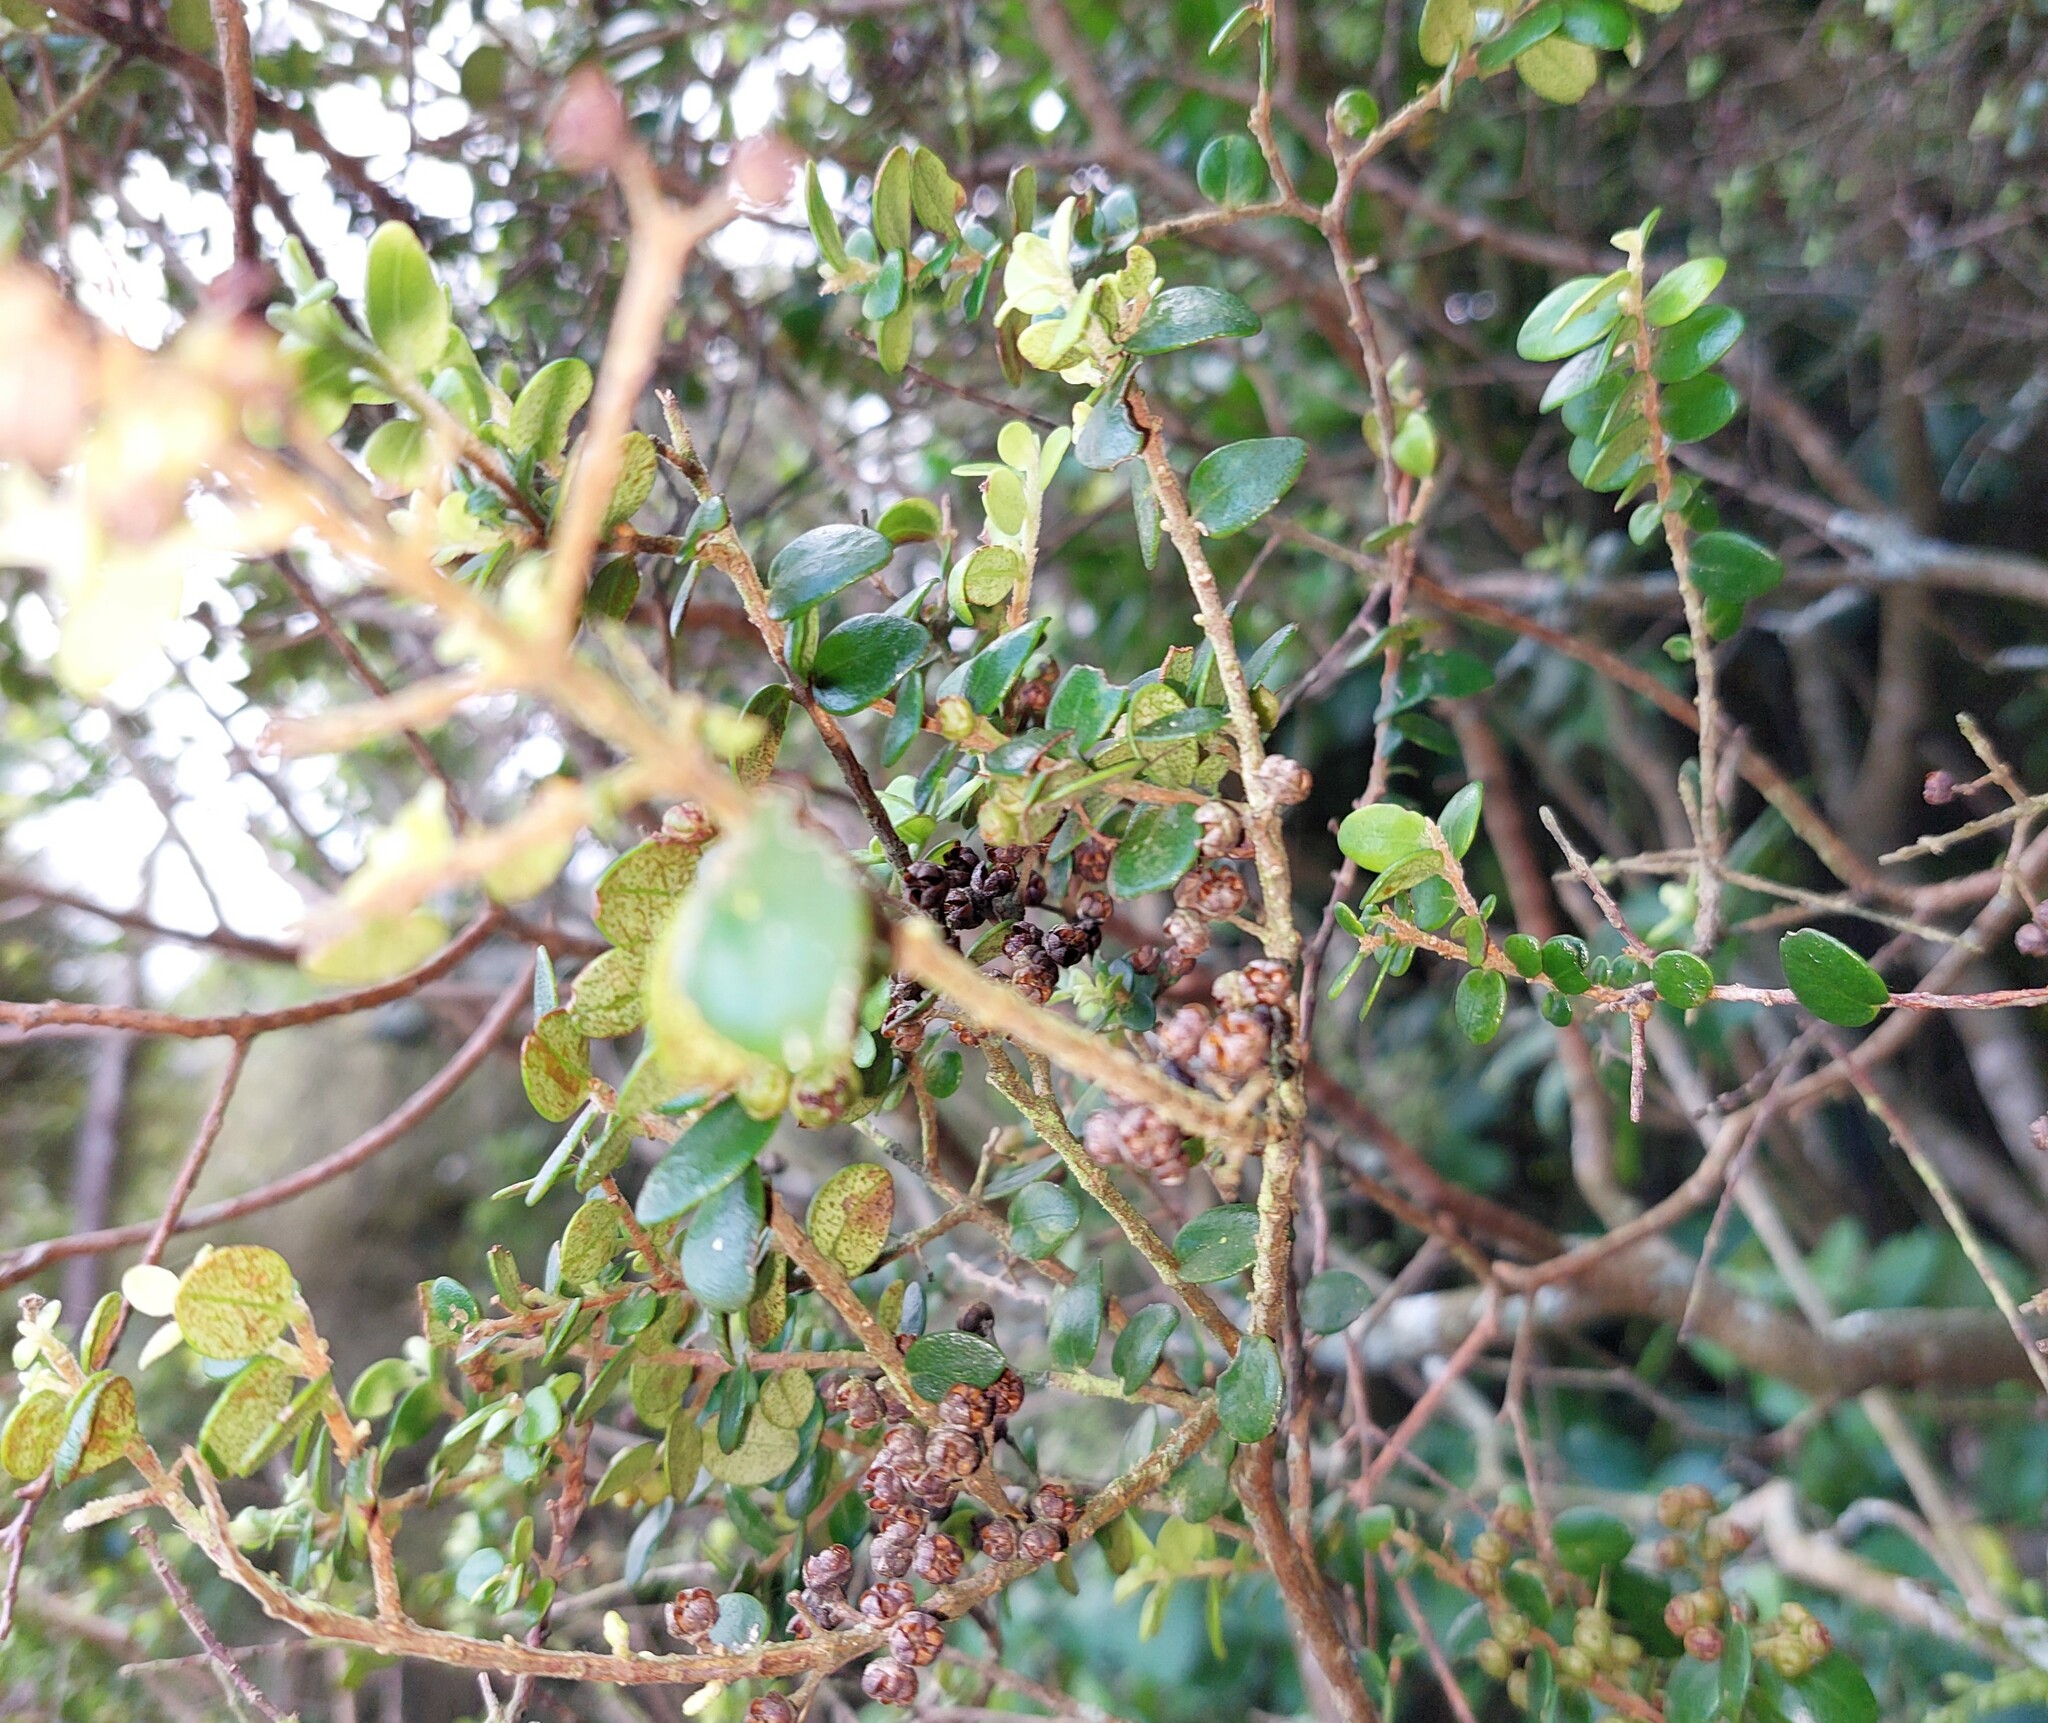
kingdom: Plantae
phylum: Tracheophyta
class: Magnoliopsida
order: Myrtales
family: Myrtaceae
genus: Metrosideros
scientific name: Metrosideros perforata
